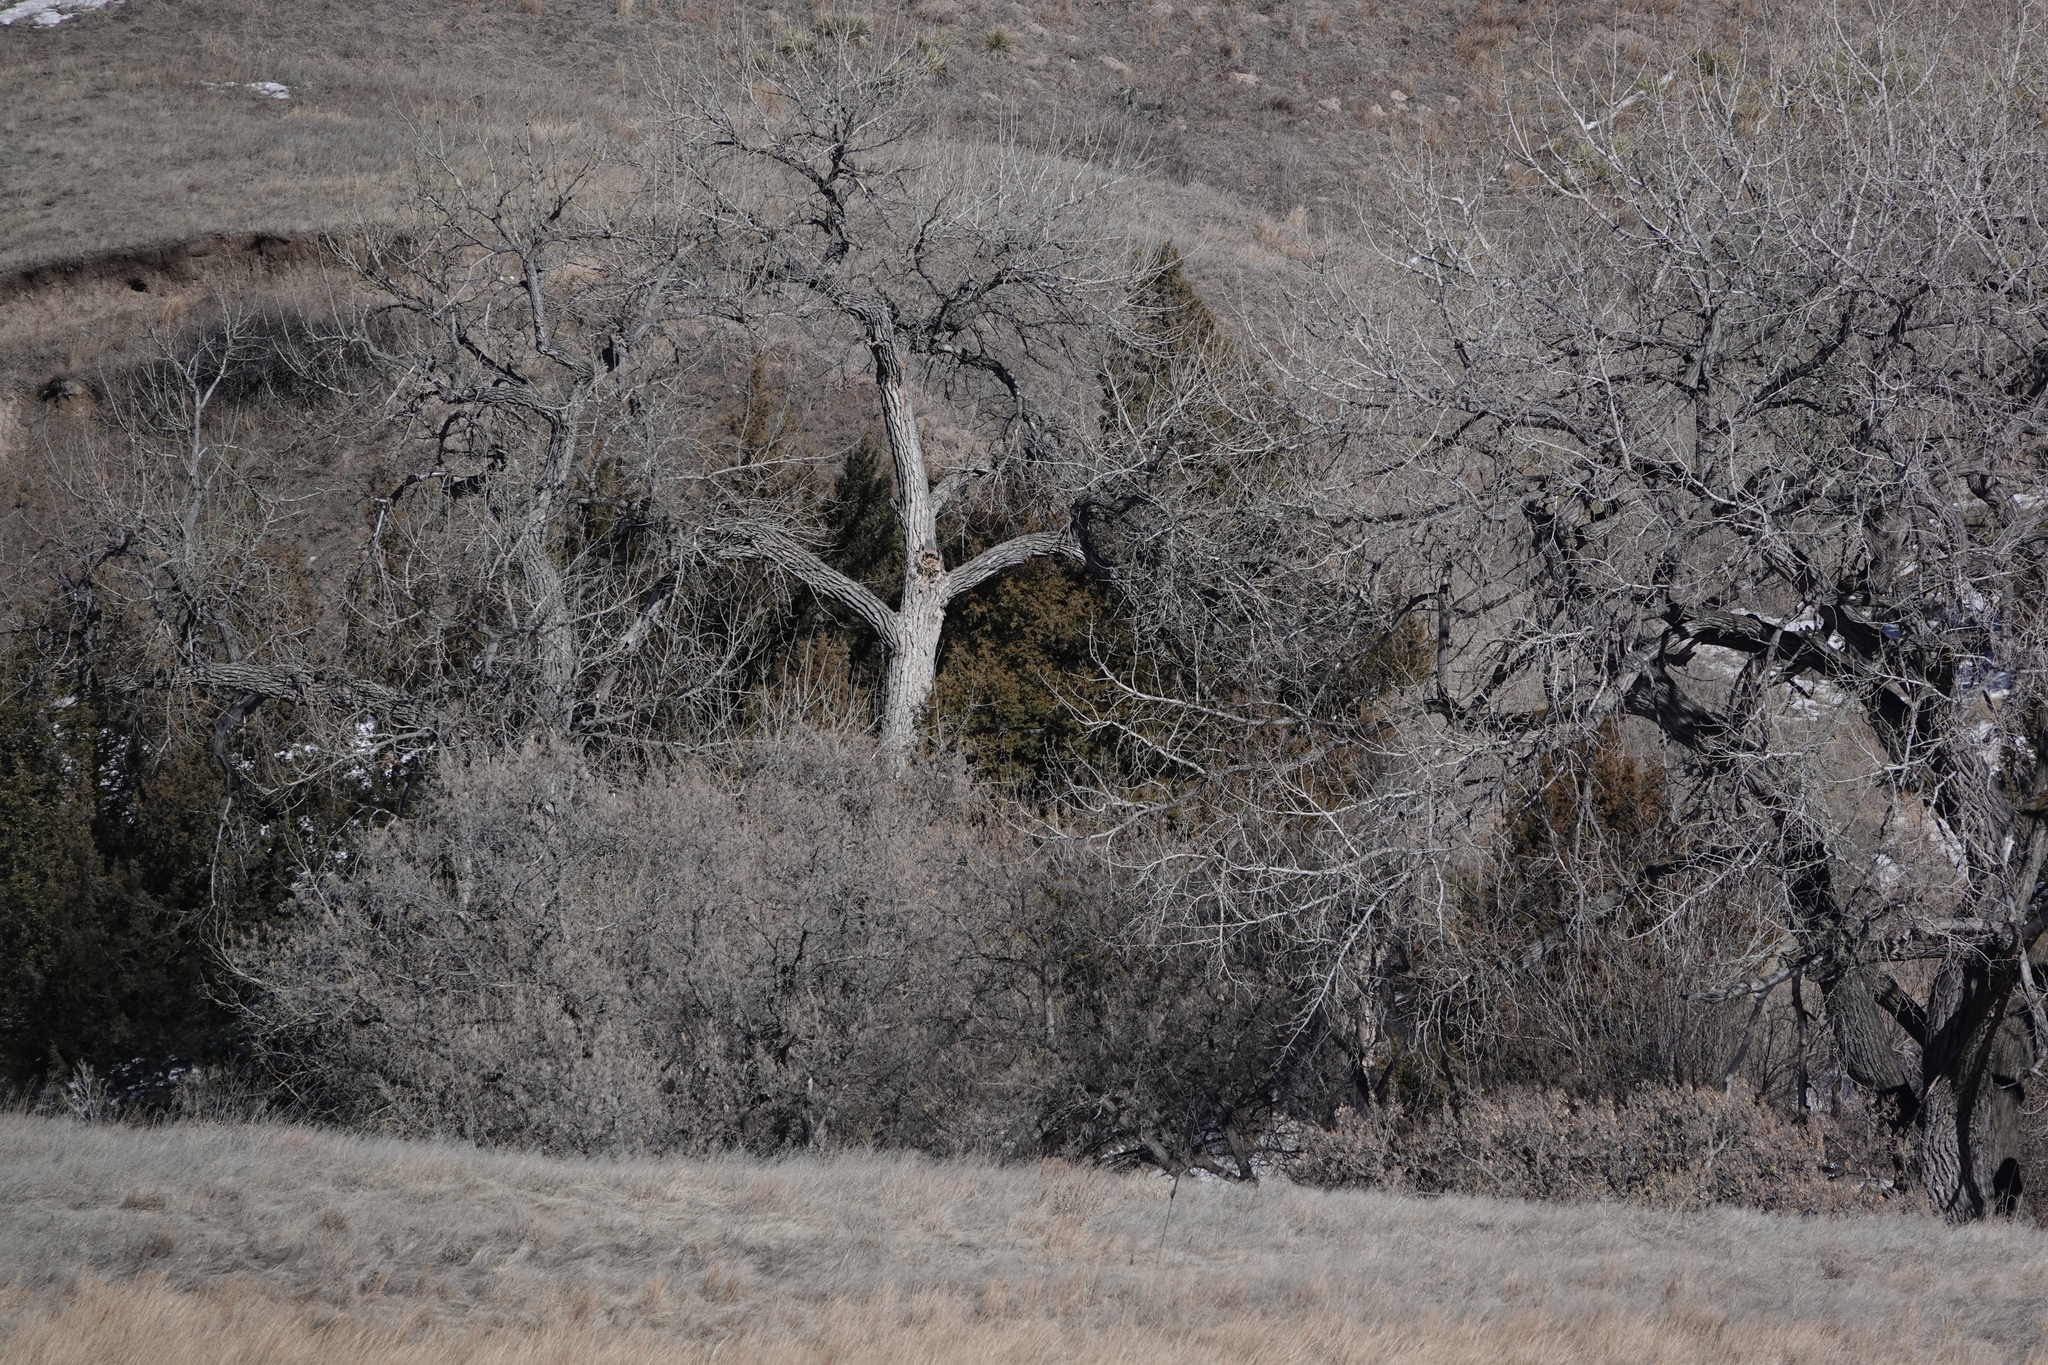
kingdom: Plantae
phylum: Tracheophyta
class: Magnoliopsida
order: Malpighiales
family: Salicaceae
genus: Populus
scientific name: Populus deltoides
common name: Eastern cottonwood
